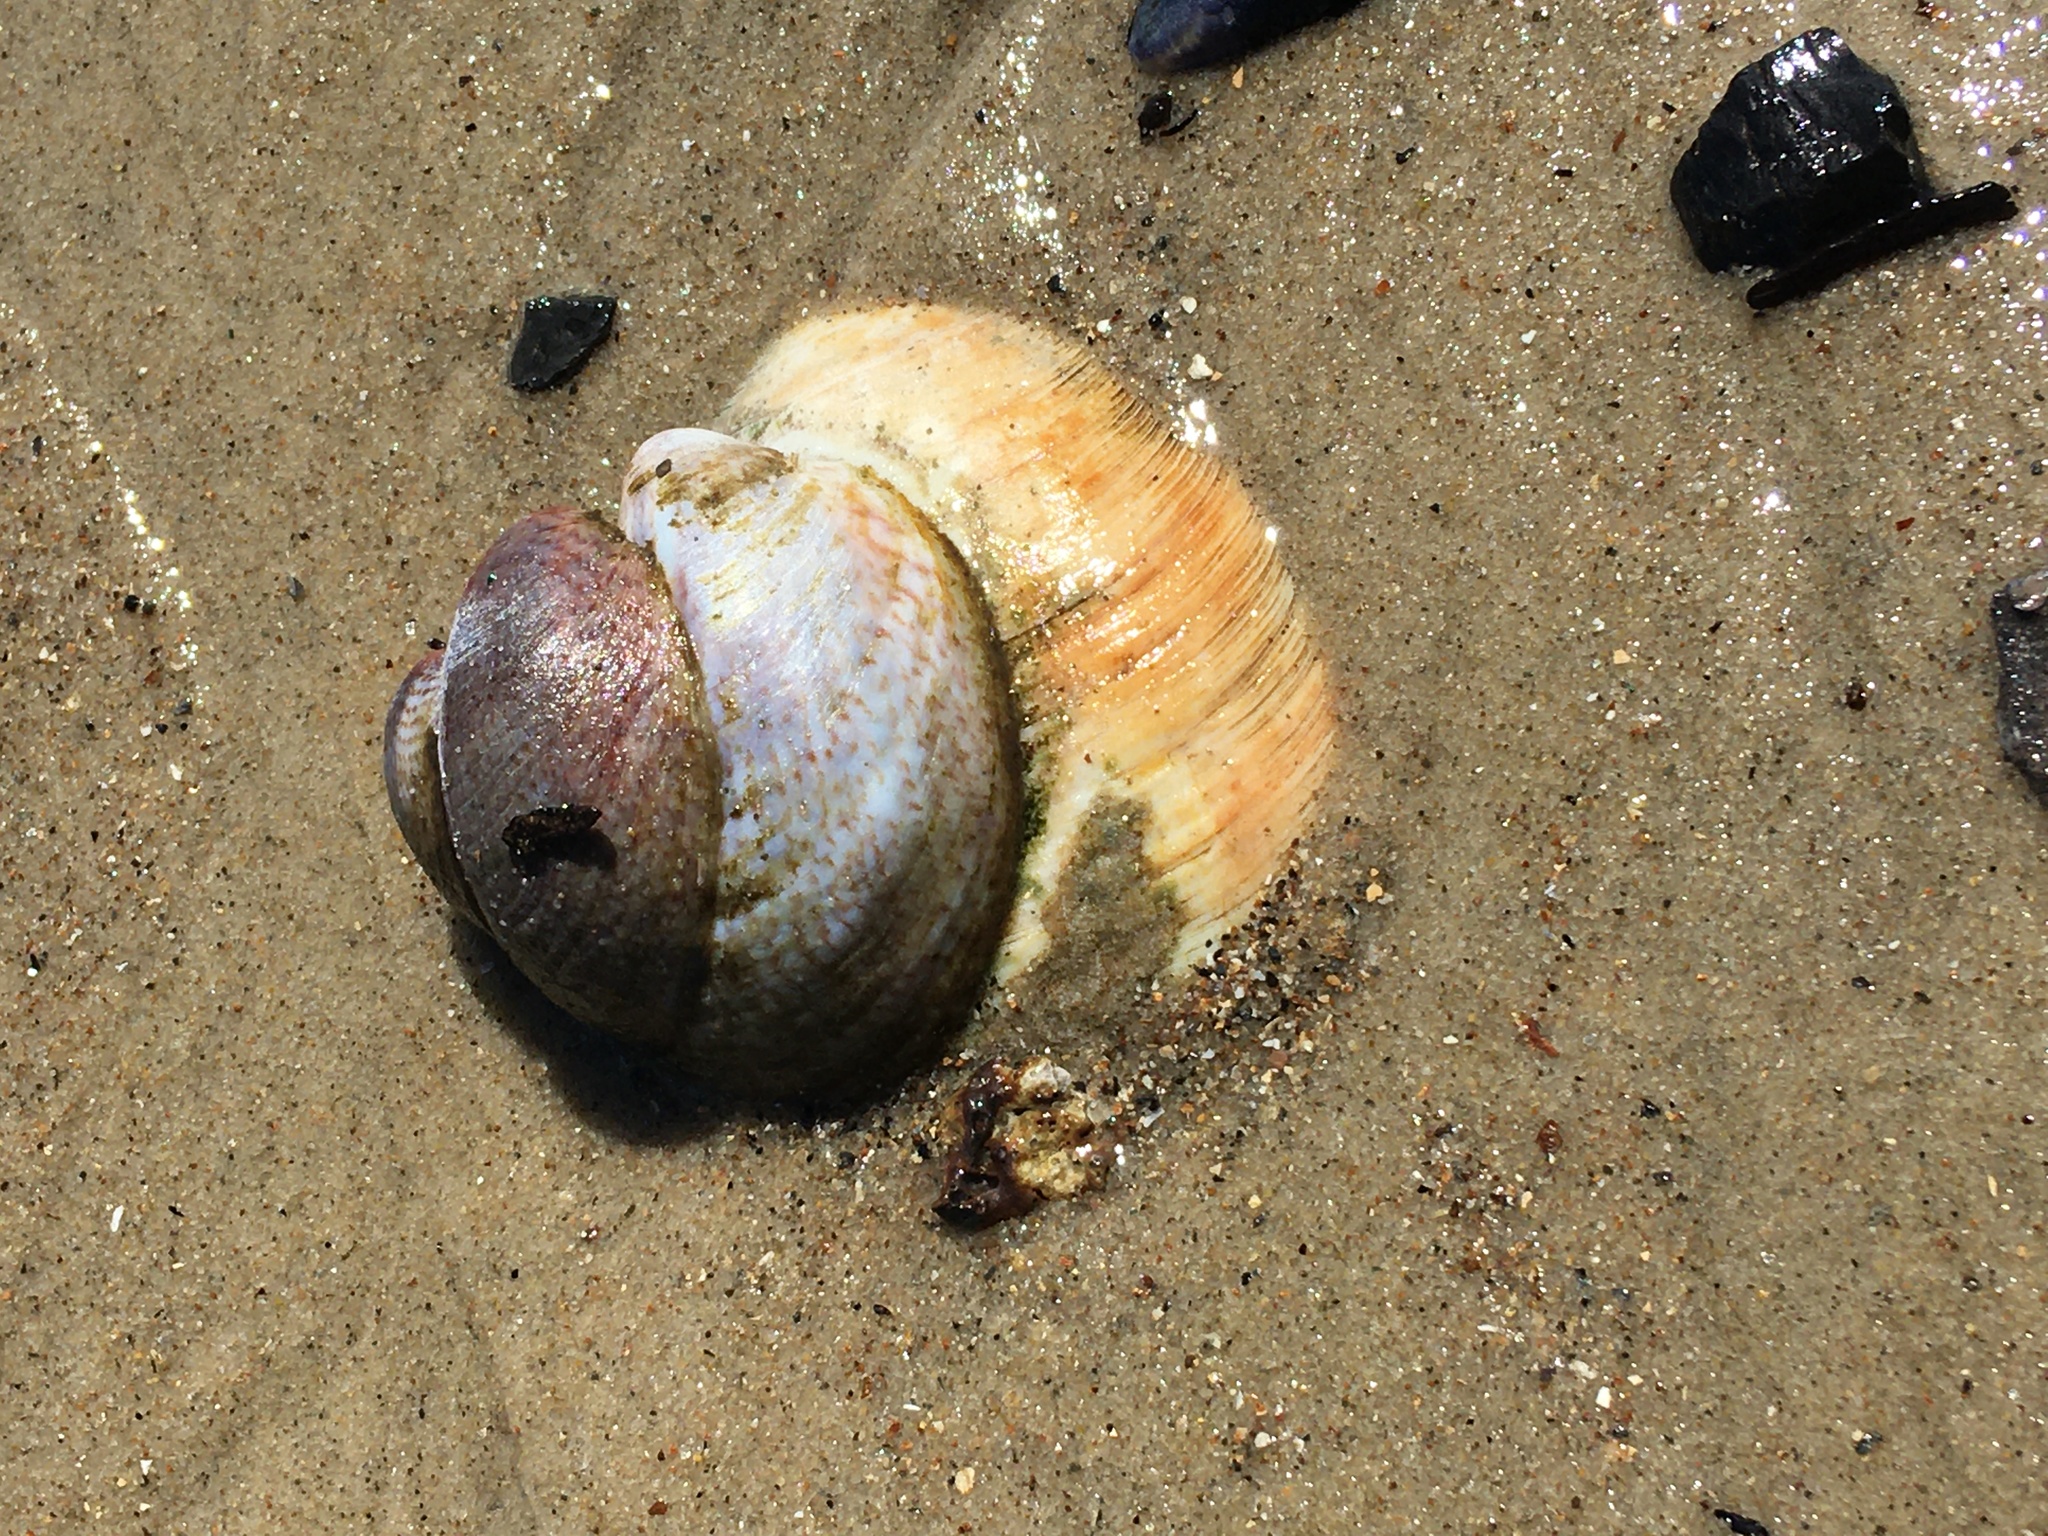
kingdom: Animalia
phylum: Mollusca
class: Gastropoda
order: Littorinimorpha
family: Calyptraeidae
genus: Crepidula
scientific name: Crepidula fornicata
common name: Slipper limpet
